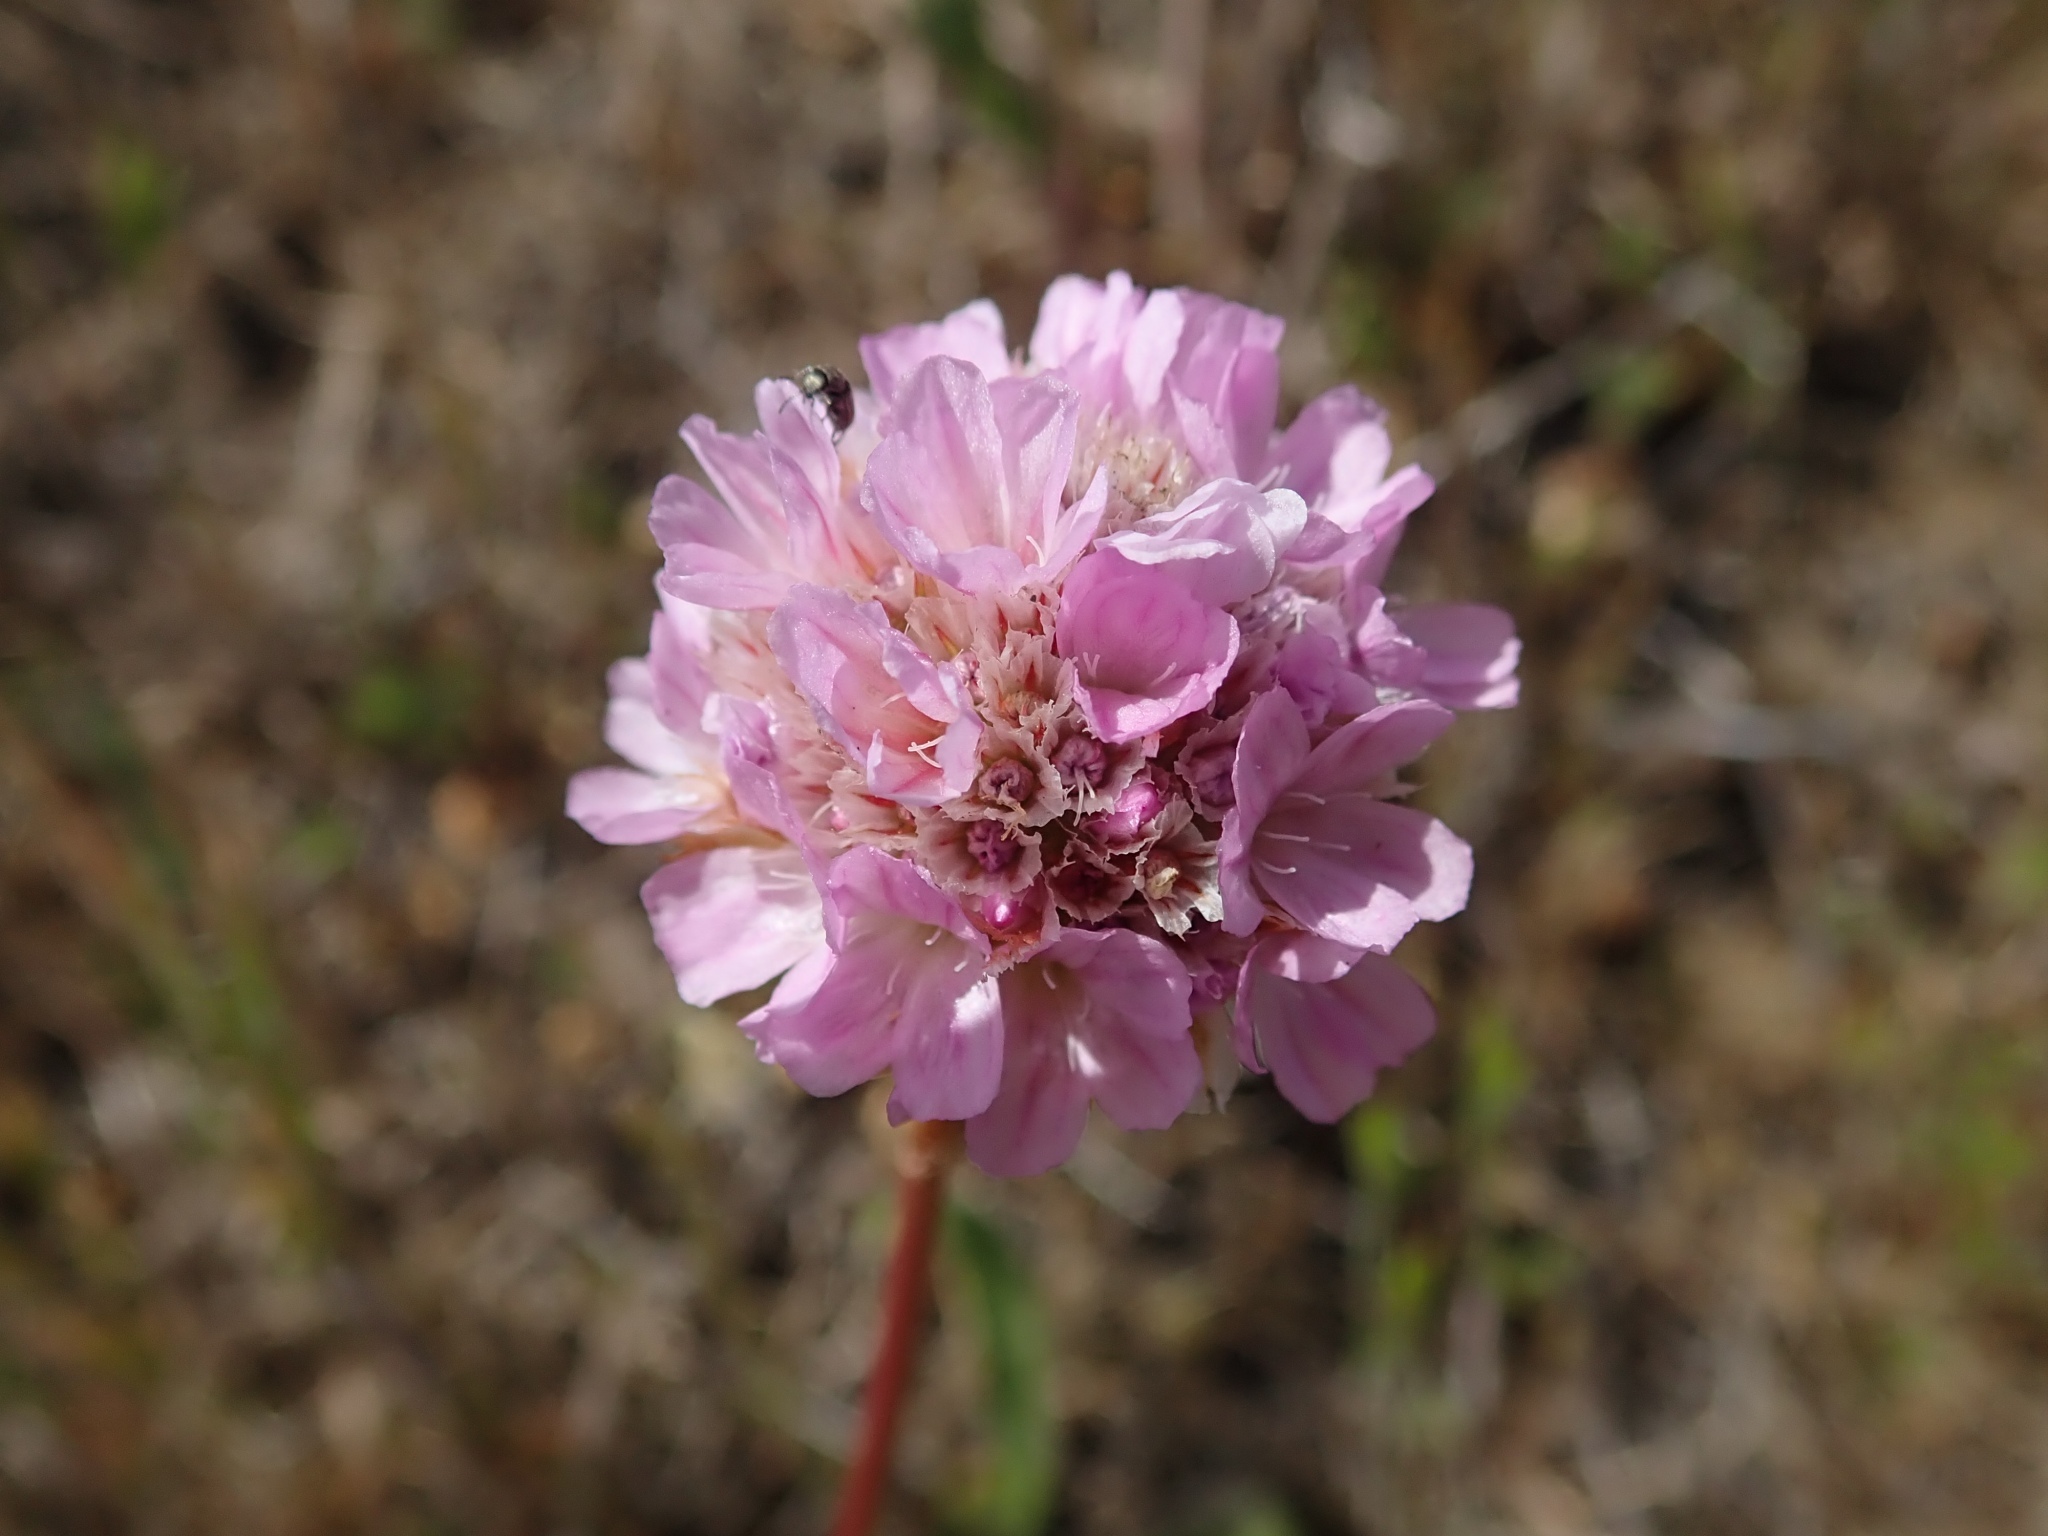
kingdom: Plantae
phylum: Tracheophyta
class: Magnoliopsida
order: Caryophyllales
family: Plumbaginaceae
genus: Armeria
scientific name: Armeria maritima
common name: Thrift
